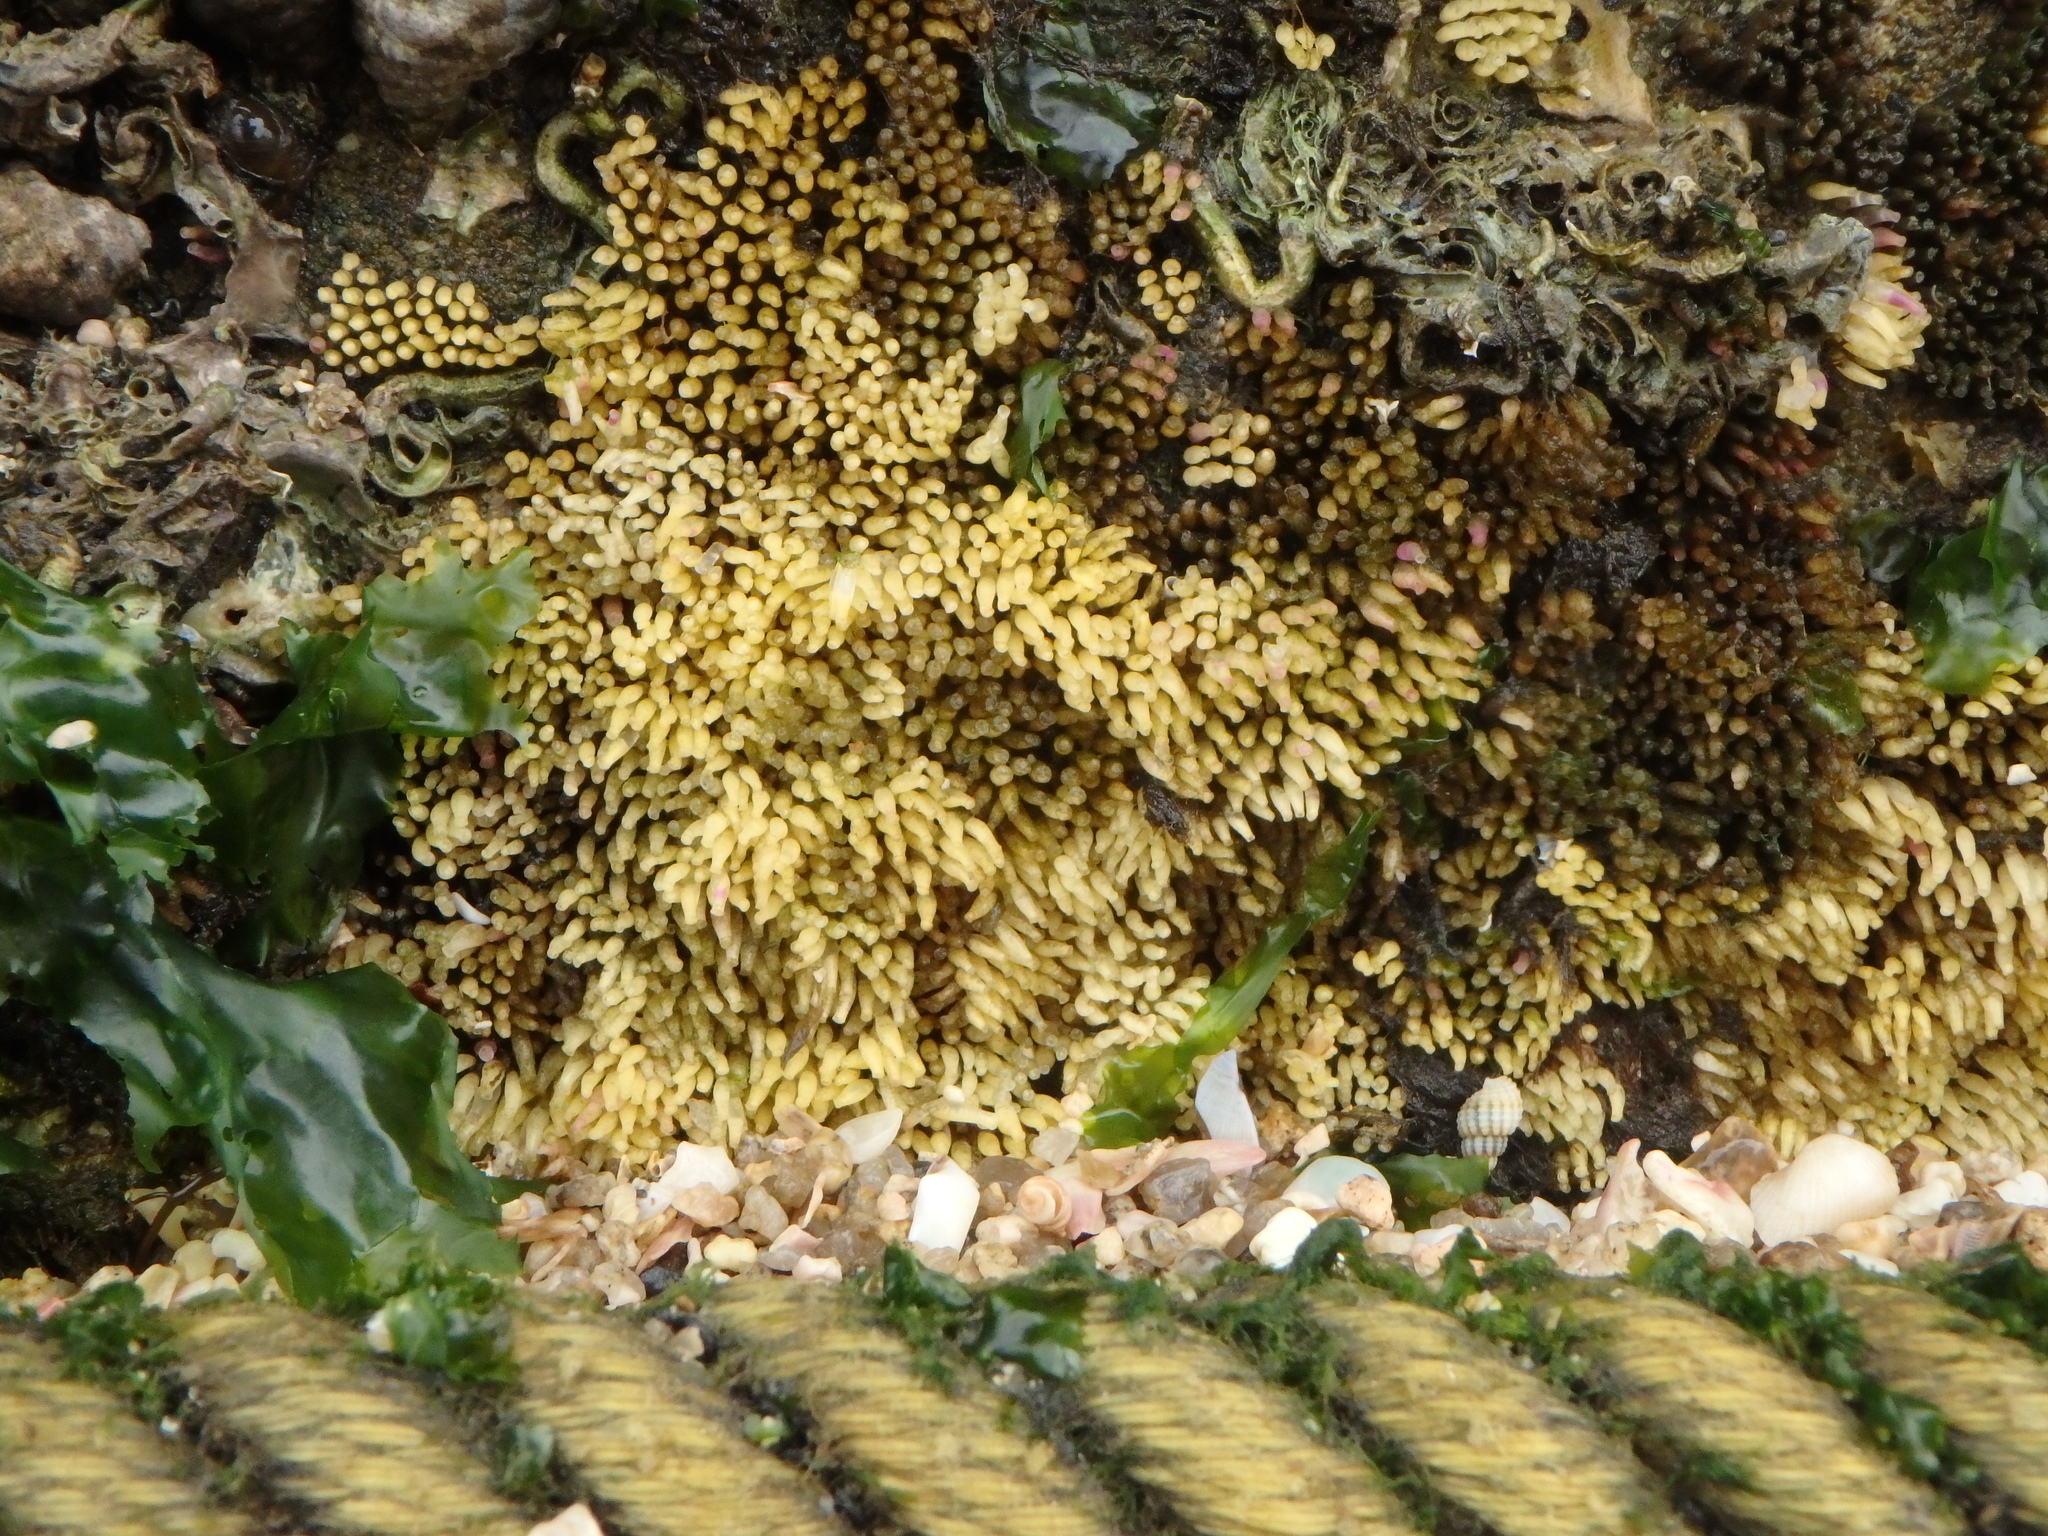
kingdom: Animalia
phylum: Mollusca
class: Gastropoda
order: Neogastropoda
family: Muricidae
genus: Reishia
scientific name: Reishia clavigera
